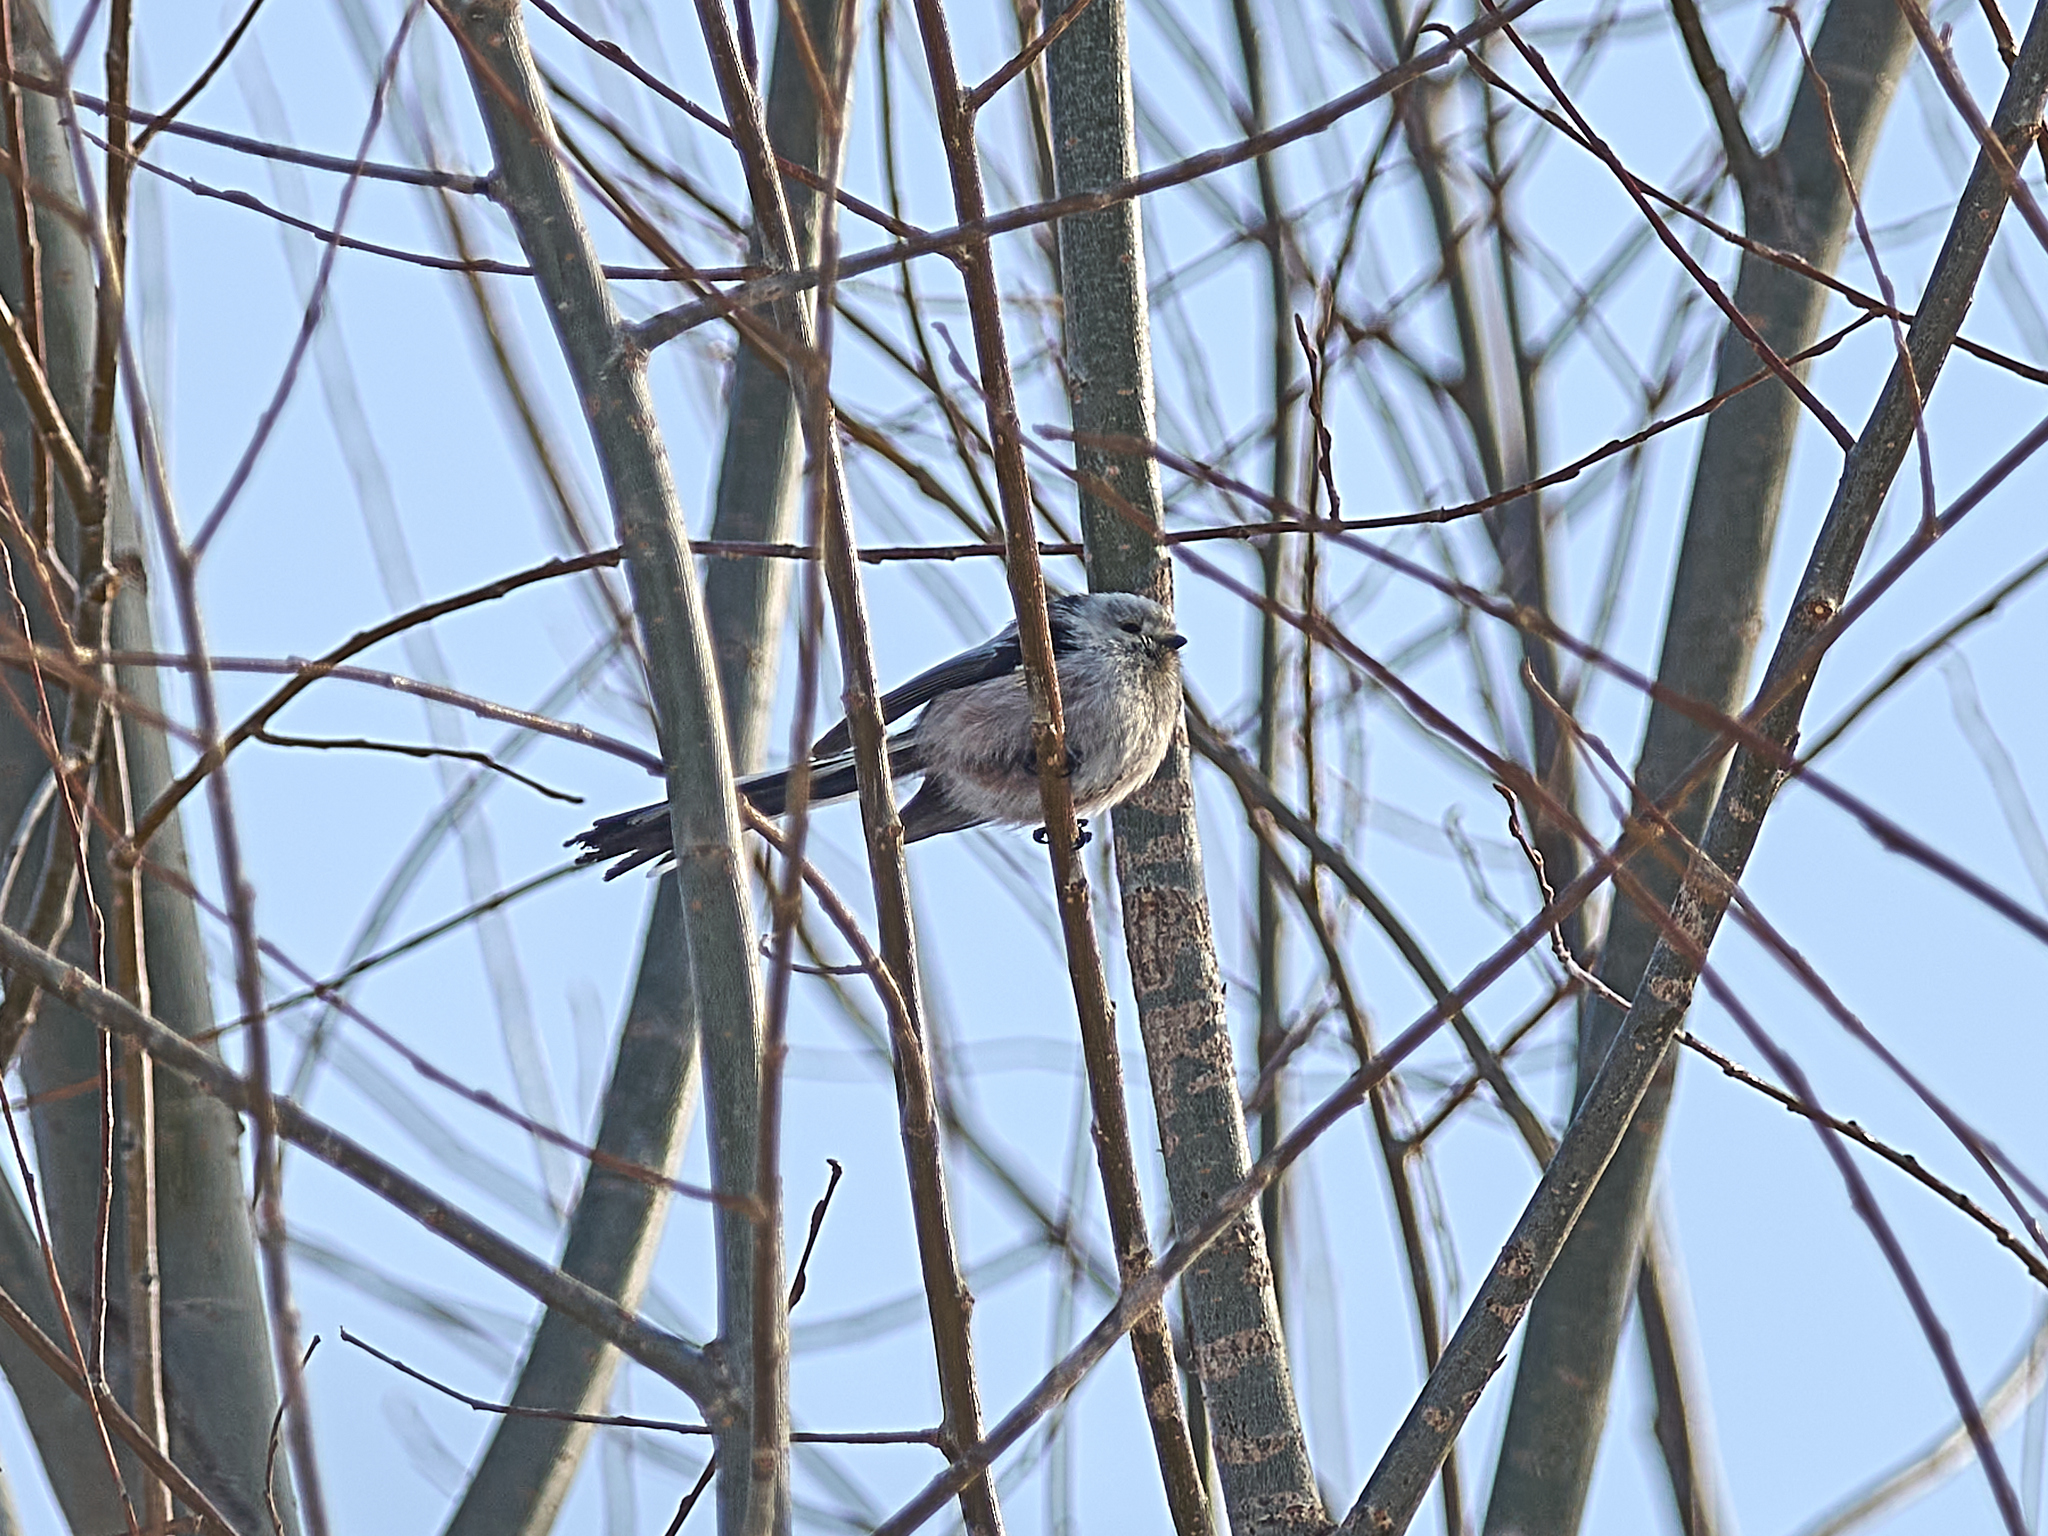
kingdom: Animalia
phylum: Chordata
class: Aves
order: Passeriformes
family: Aegithalidae
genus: Aegithalos
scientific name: Aegithalos caudatus
